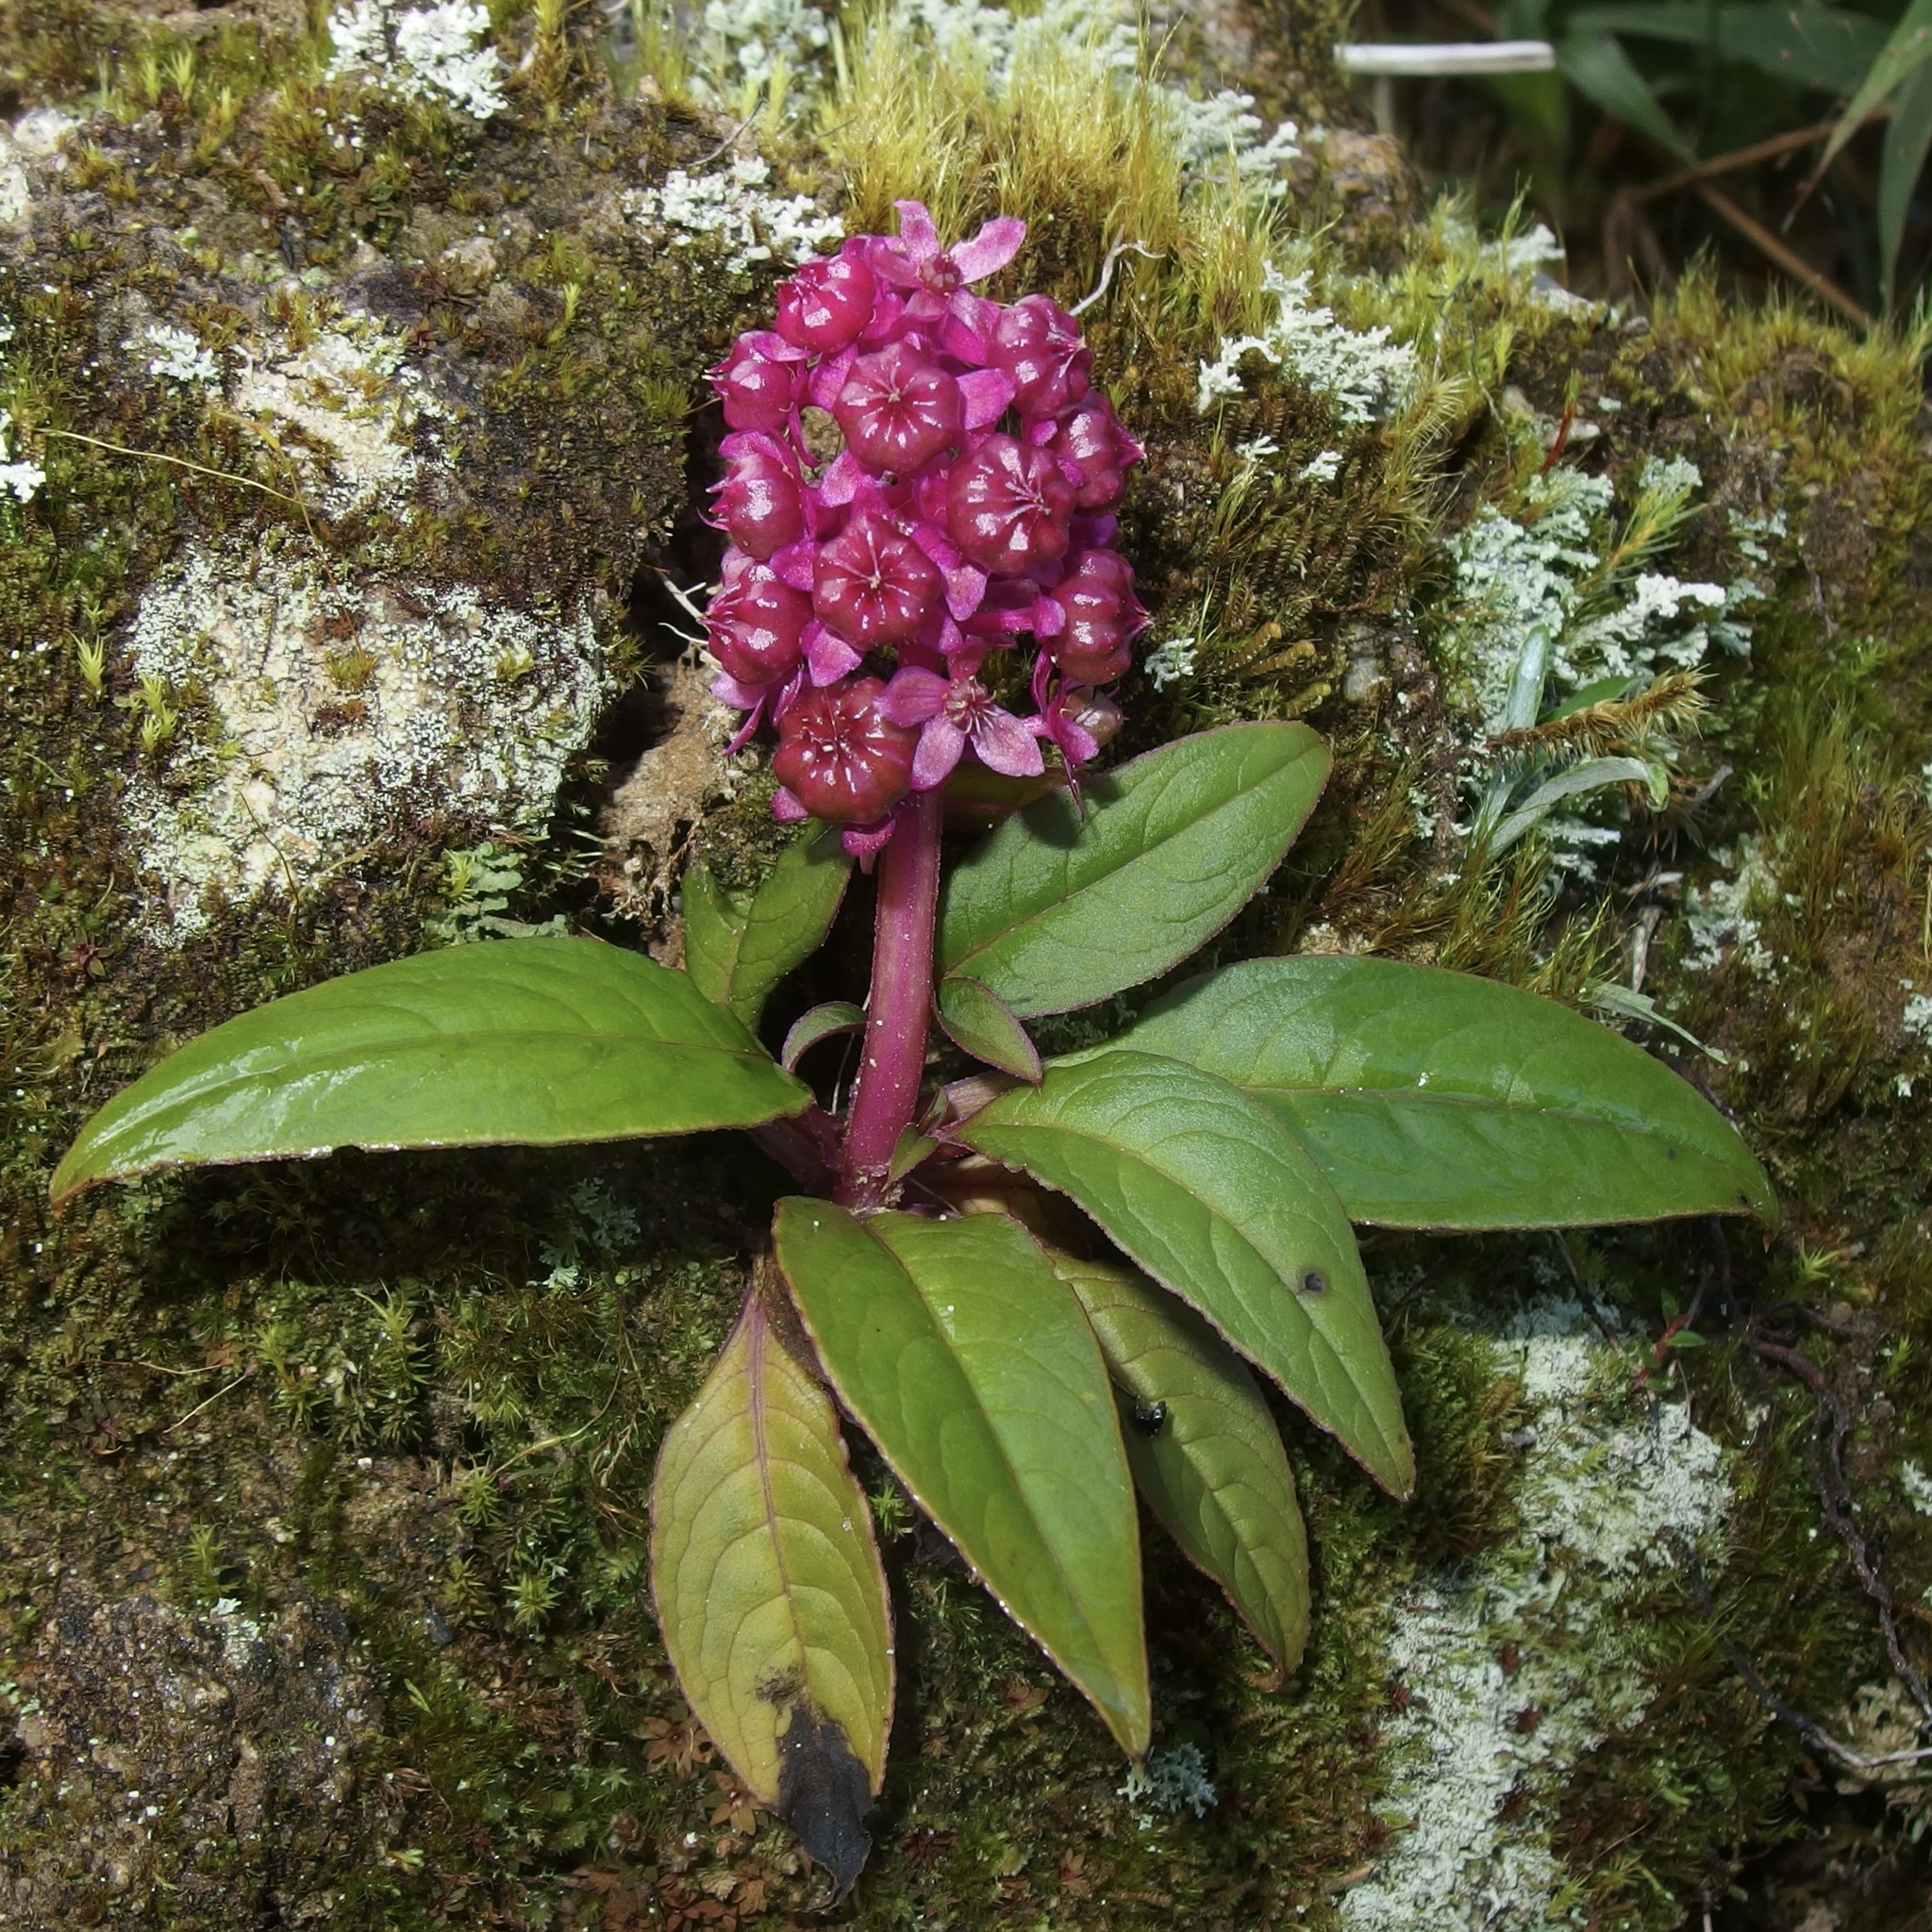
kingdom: Plantae
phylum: Tracheophyta
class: Magnoliopsida
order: Caryophyllales
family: Phytolaccaceae
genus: Phytolacca
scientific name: Phytolacca bogotensis
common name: Southern pokeweed
